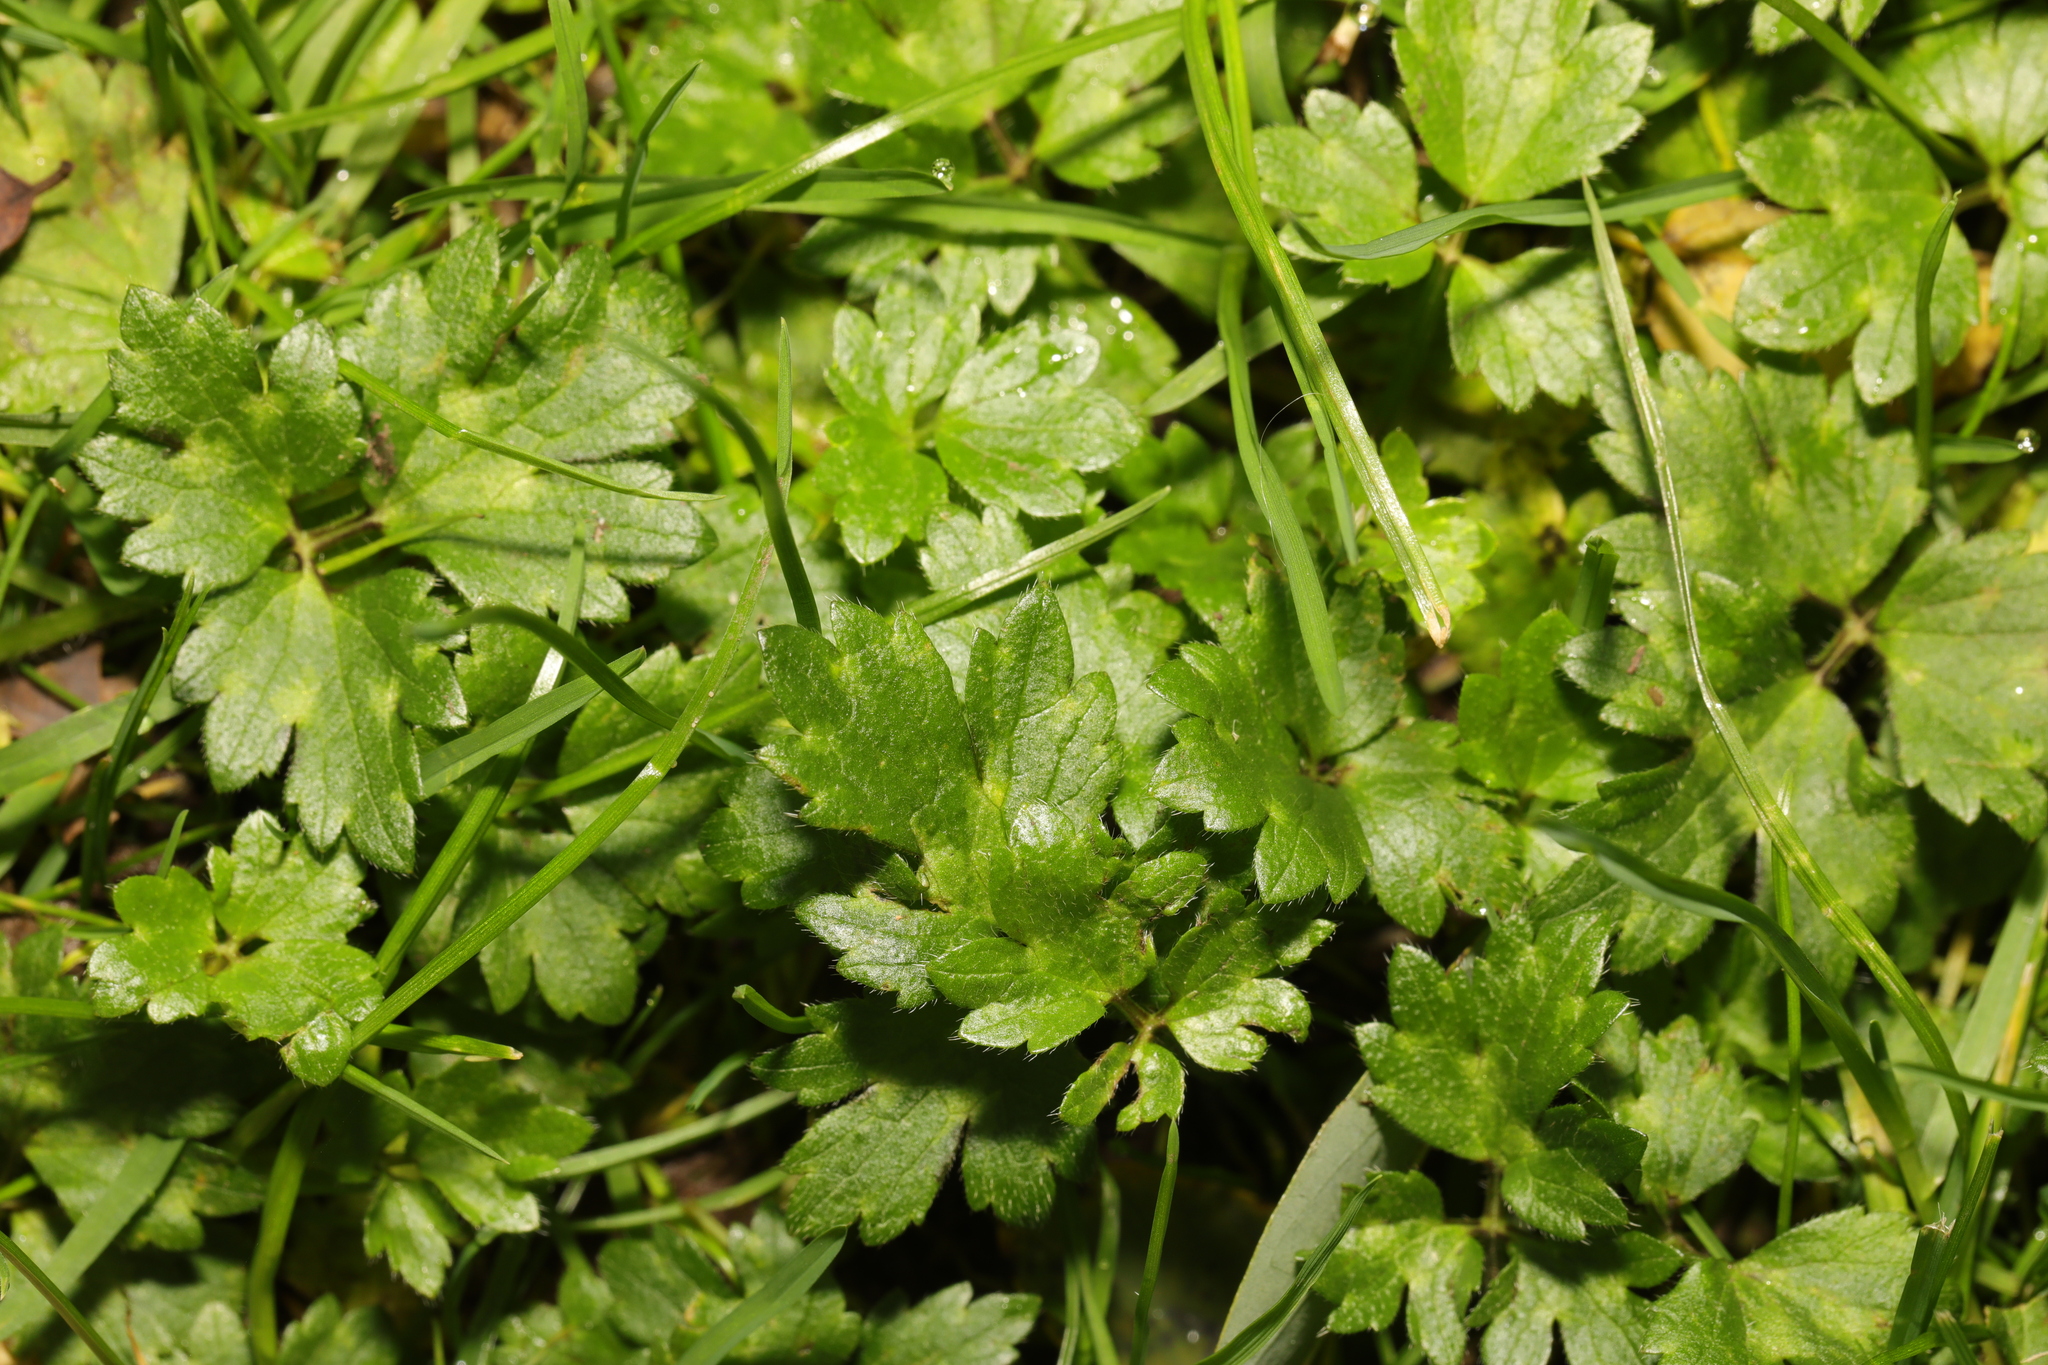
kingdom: Plantae
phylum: Tracheophyta
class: Magnoliopsida
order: Ranunculales
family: Ranunculaceae
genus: Ranunculus
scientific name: Ranunculus repens
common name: Creeping buttercup
